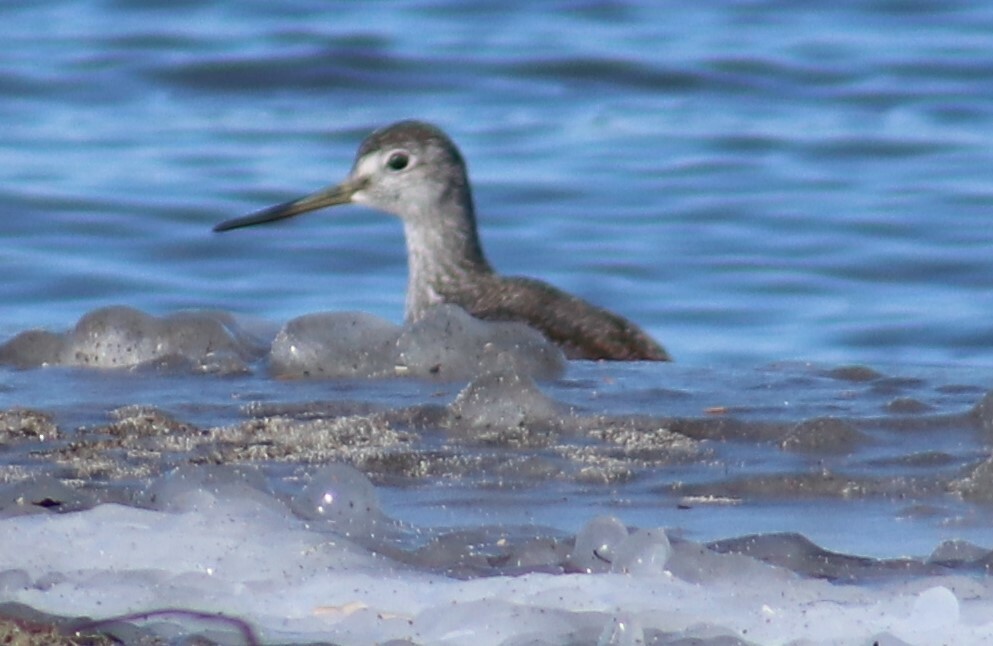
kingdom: Animalia
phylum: Chordata
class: Aves
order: Charadriiformes
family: Scolopacidae
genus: Tringa
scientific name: Tringa melanoleuca
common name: Greater yellowlegs
